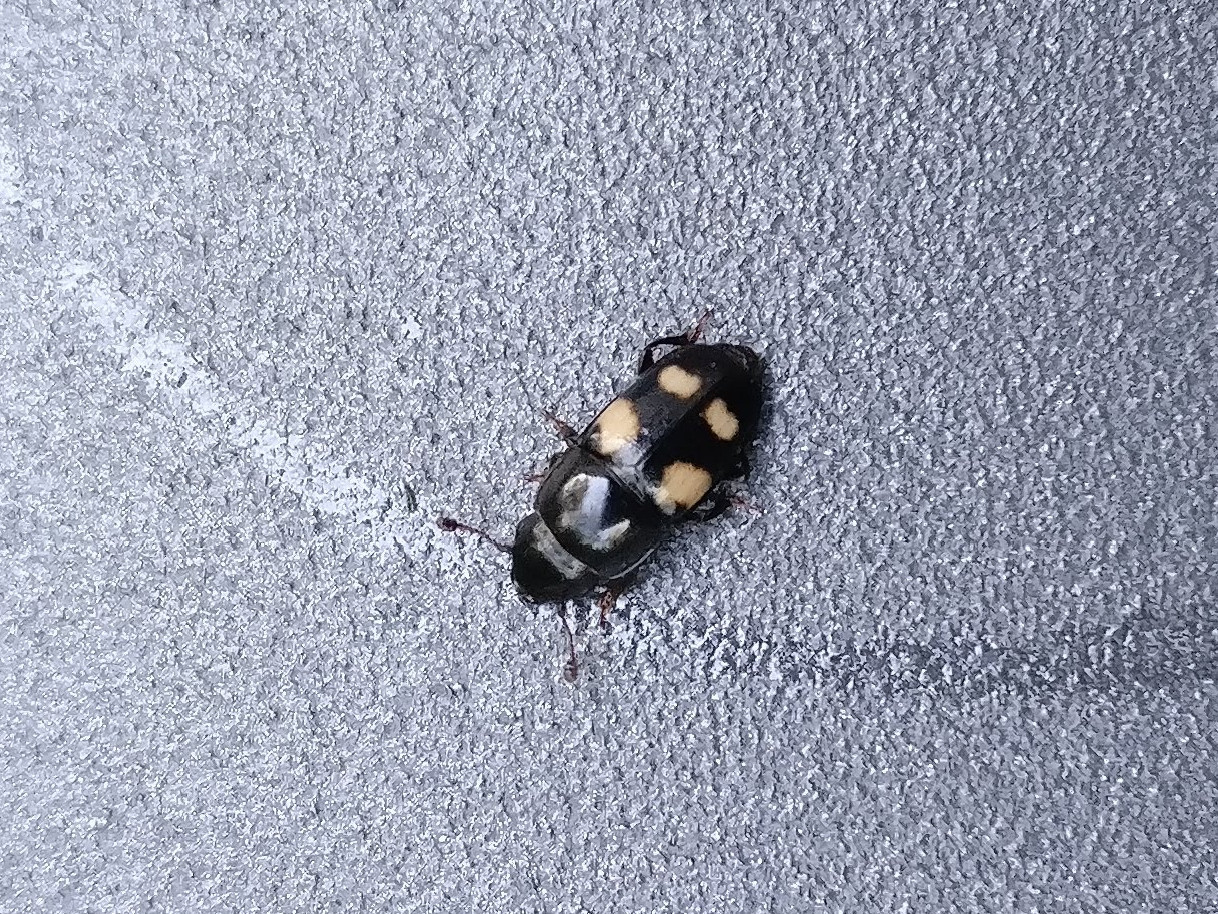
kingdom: Animalia
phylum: Arthropoda
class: Insecta
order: Coleoptera
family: Nitidulidae
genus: Glischrochilus
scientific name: Glischrochilus quadrisignatus
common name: Picnic beetle
